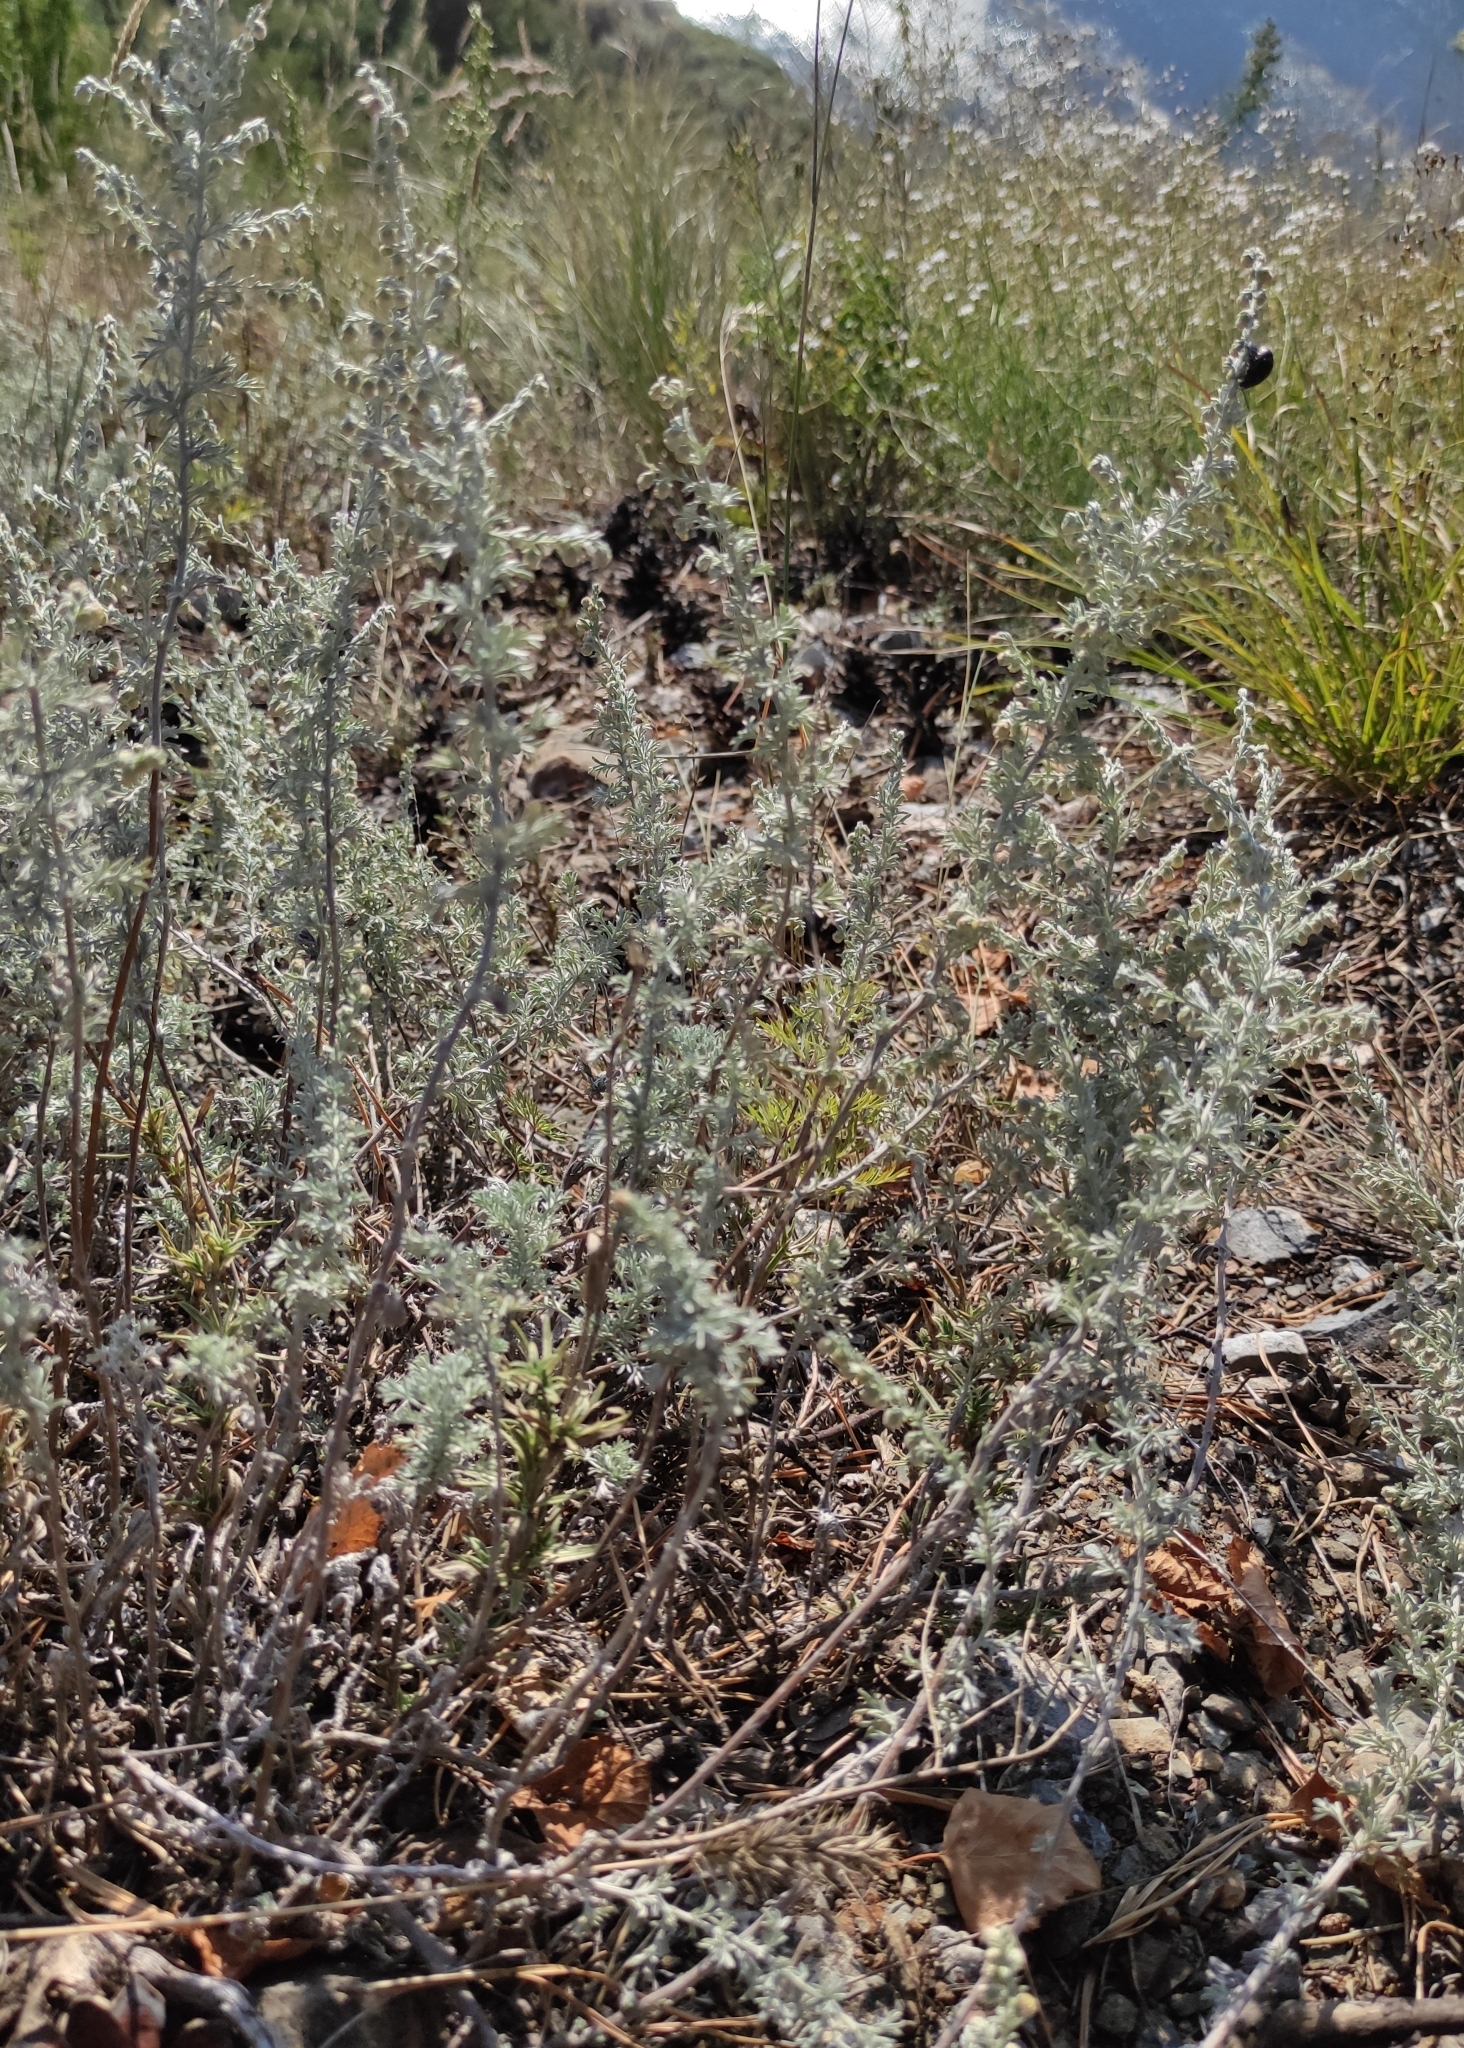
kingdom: Plantae
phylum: Tracheophyta
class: Magnoliopsida
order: Asterales
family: Asteraceae
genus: Artemisia
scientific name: Artemisia frigida
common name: Prairie sagewort
